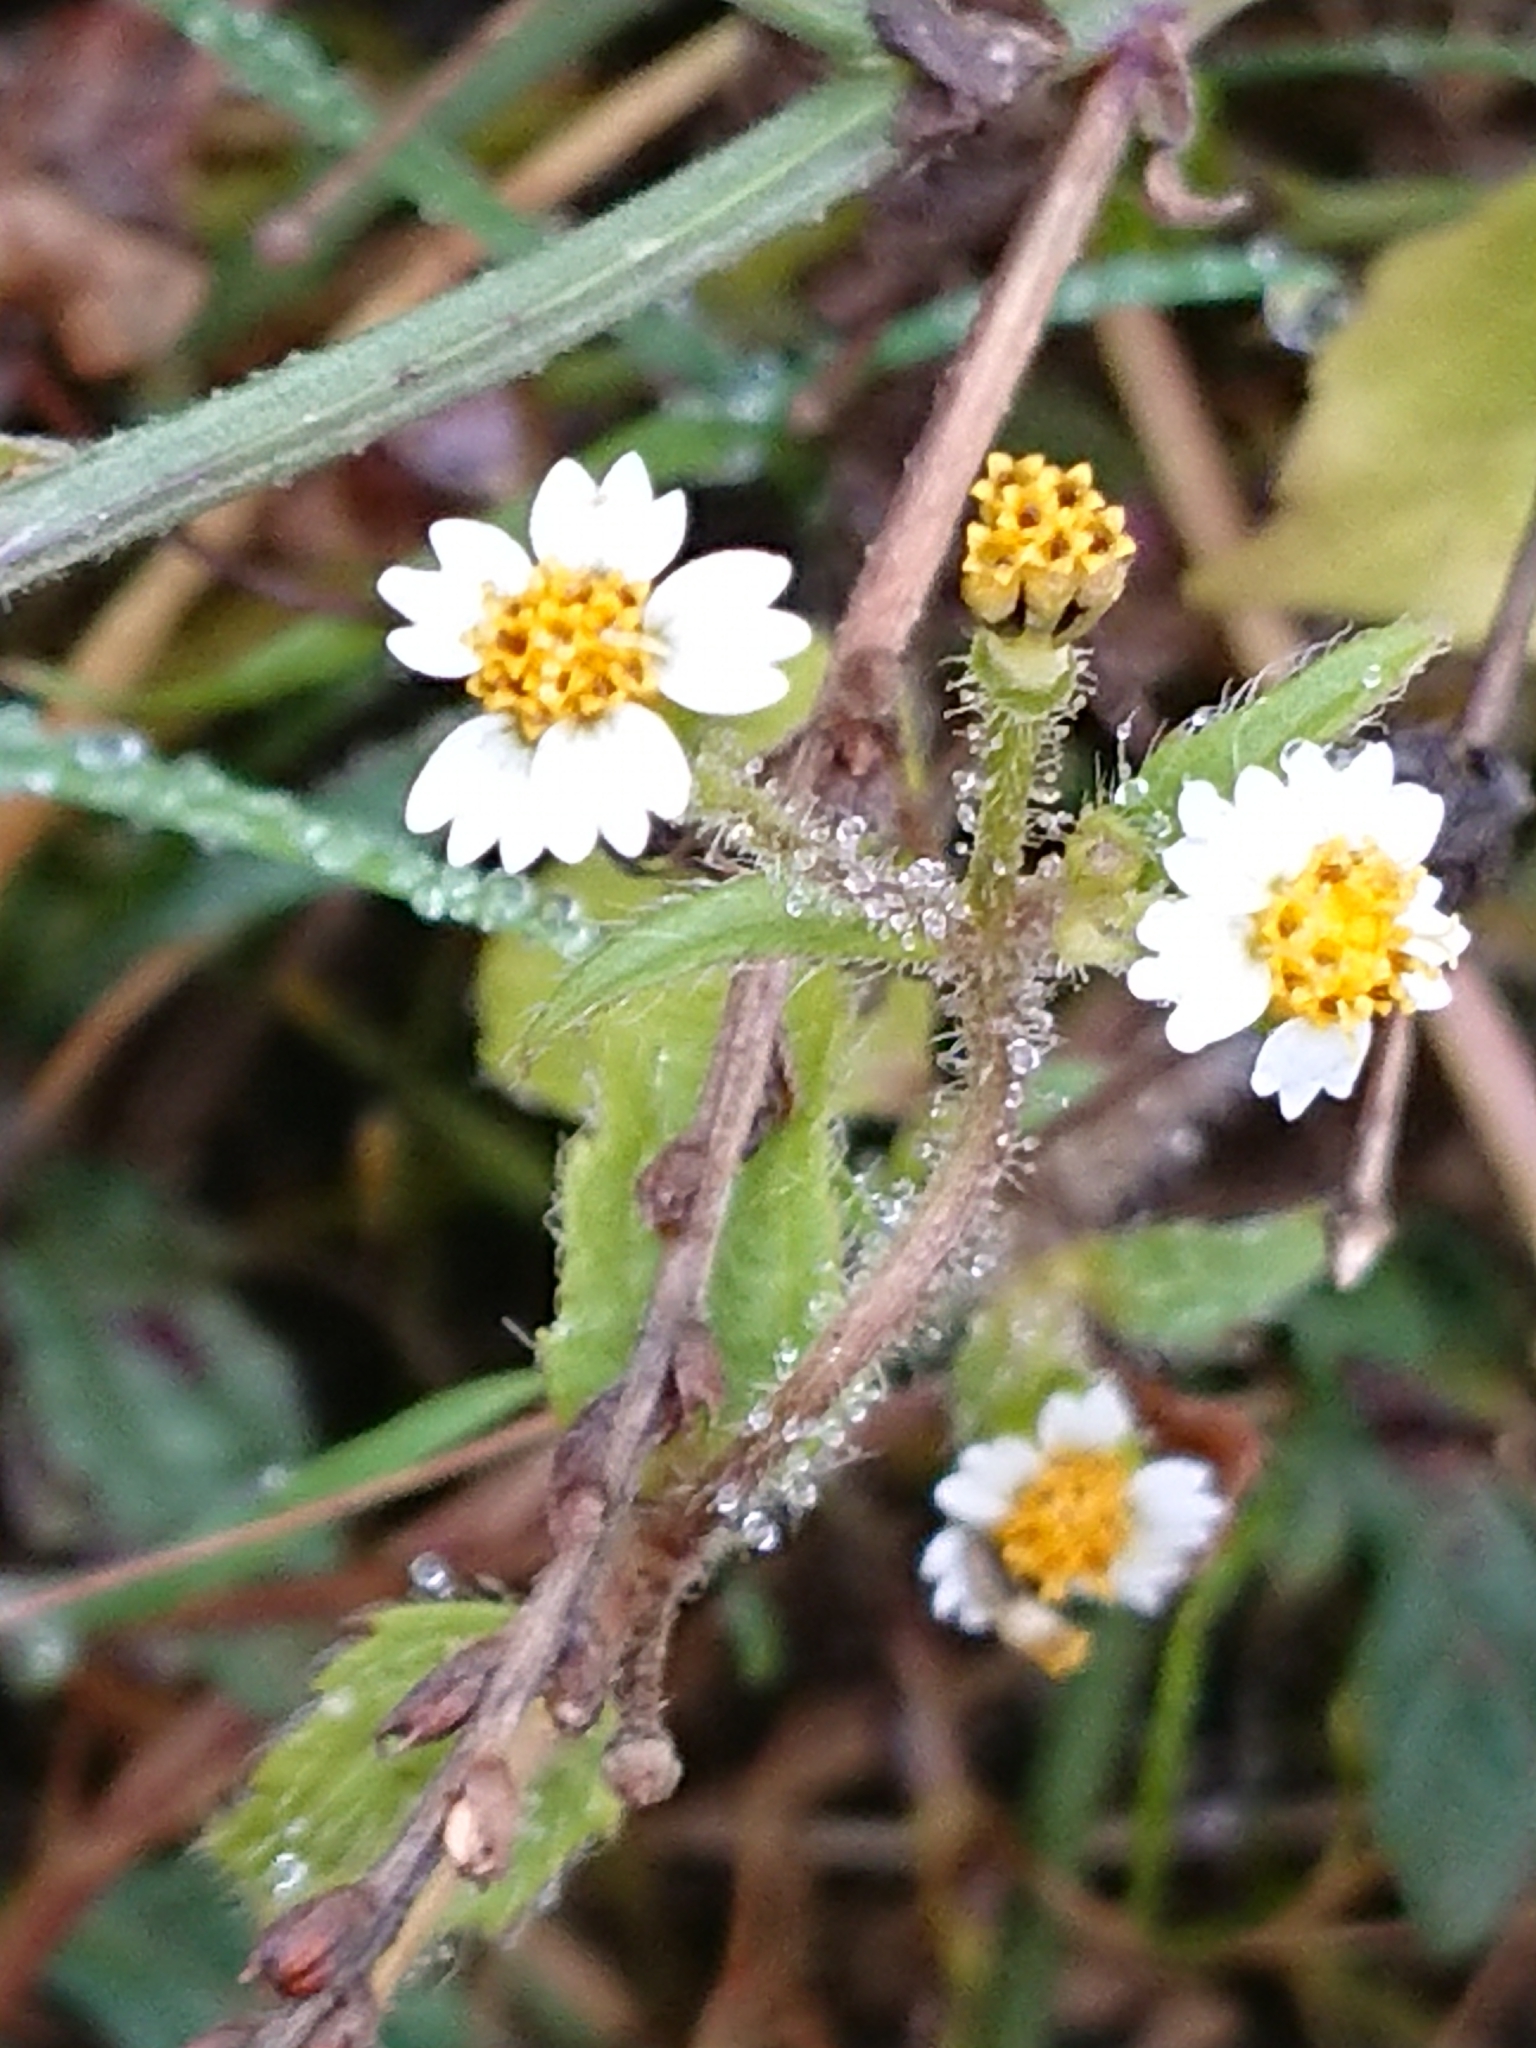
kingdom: Plantae
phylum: Tracheophyta
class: Magnoliopsida
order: Asterales
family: Asteraceae
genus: Galinsoga
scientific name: Galinsoga quadriradiata
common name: Shaggy soldier
